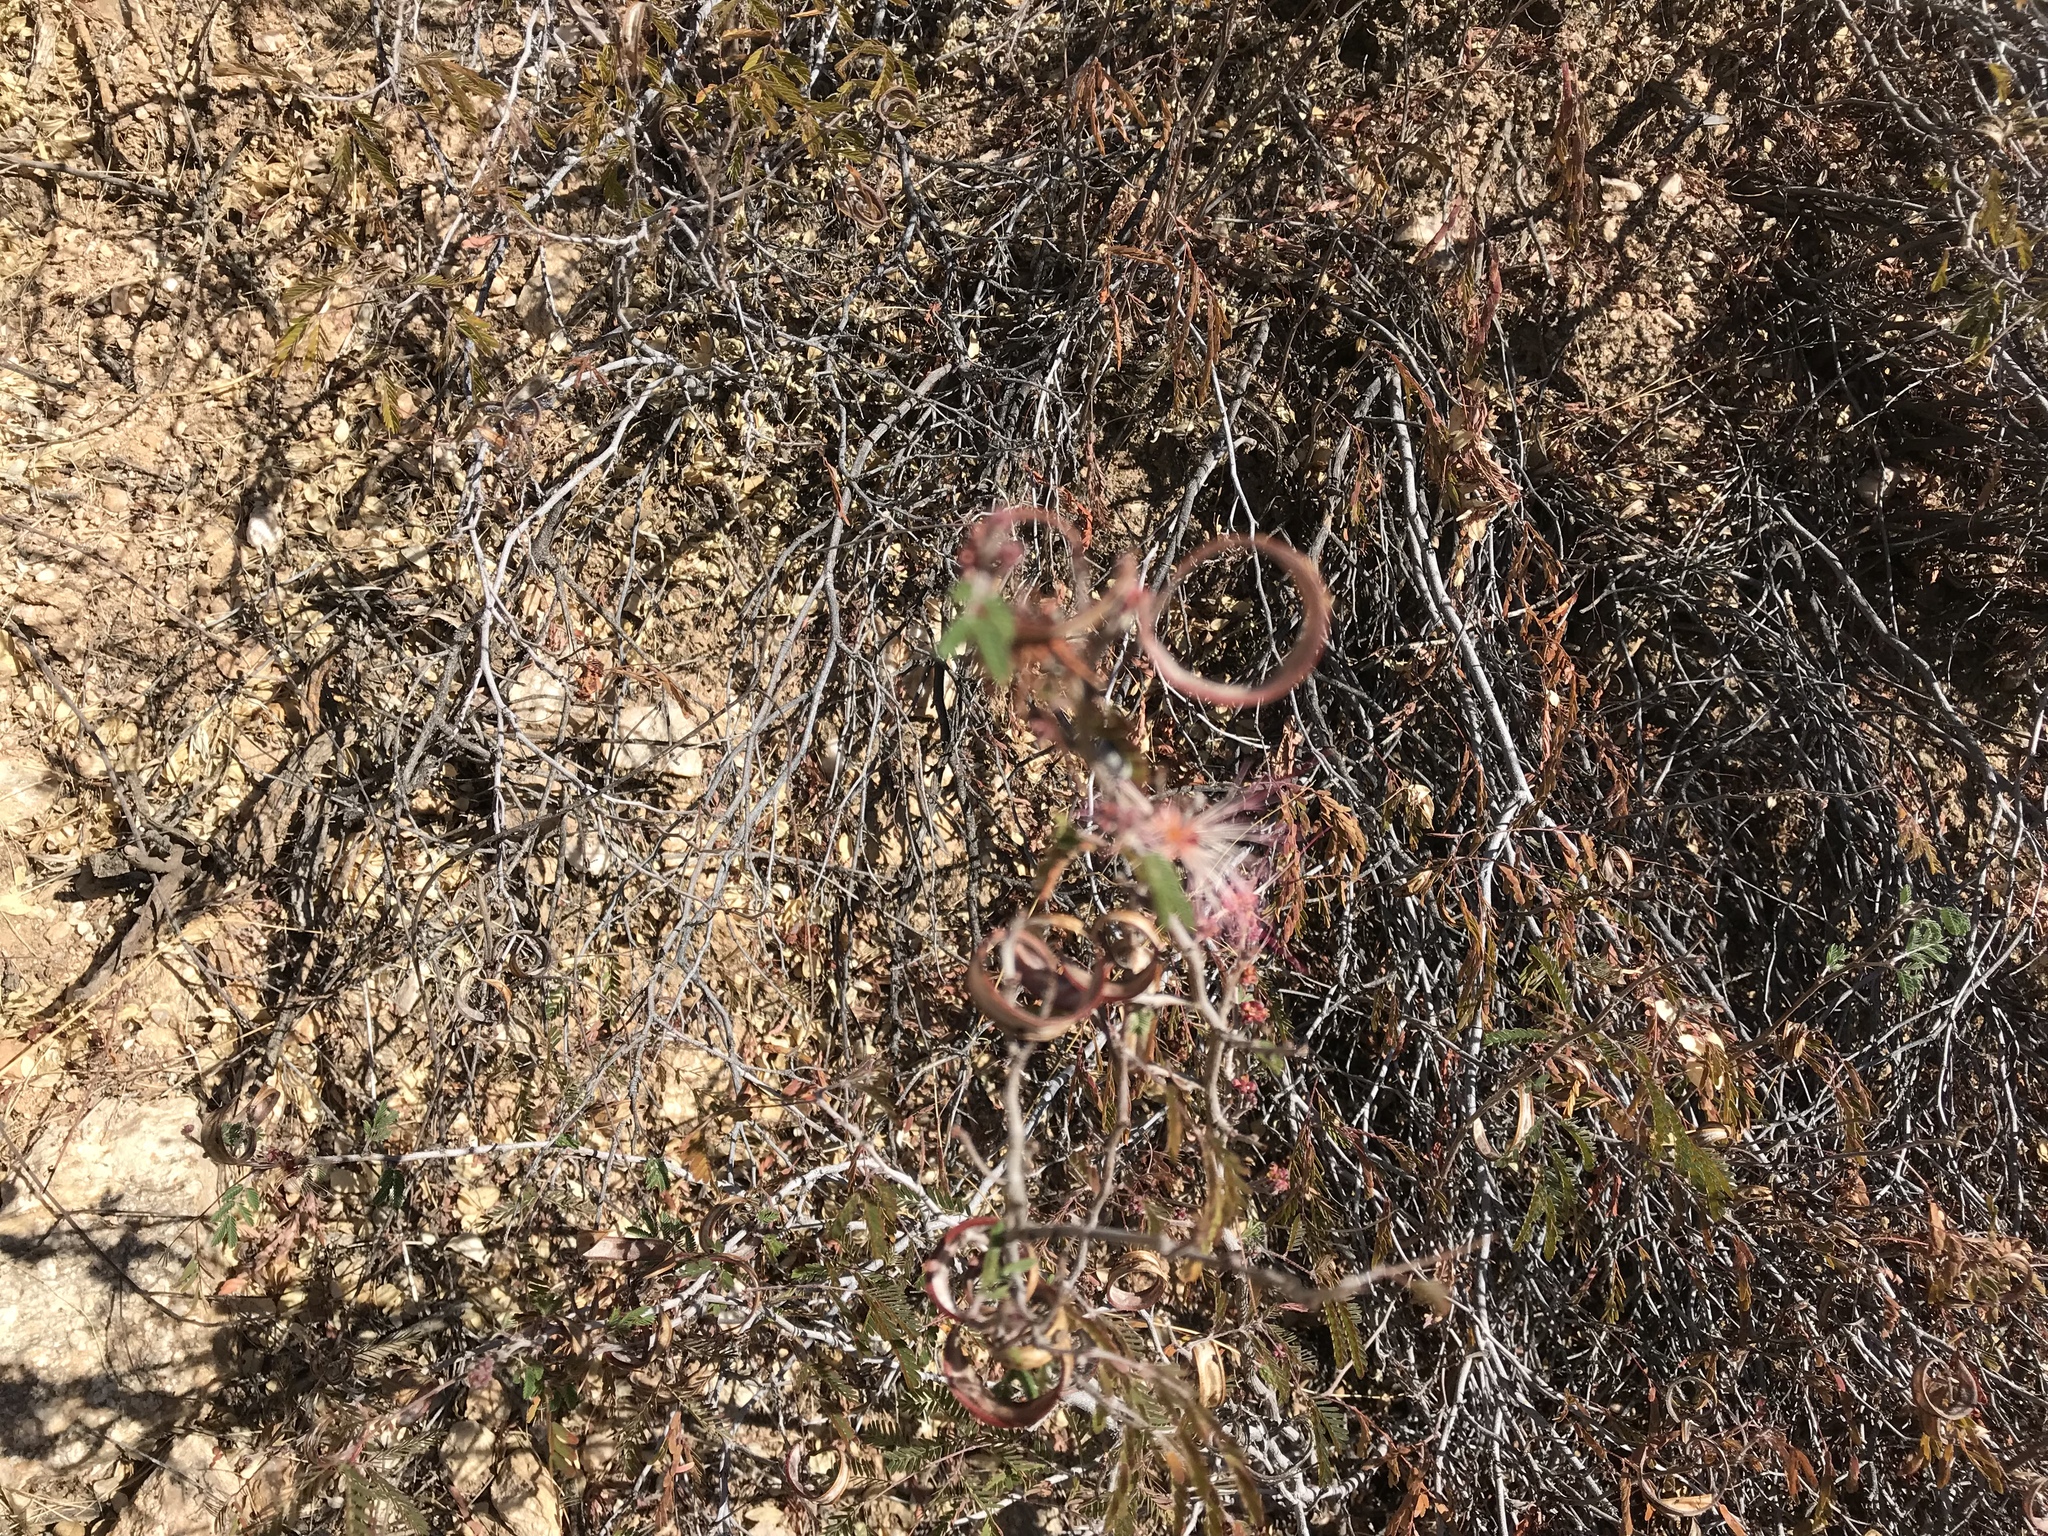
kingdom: Plantae
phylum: Tracheophyta
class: Magnoliopsida
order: Fabales
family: Fabaceae
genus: Calliandra
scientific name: Calliandra eriophylla
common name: Fairy-duster
